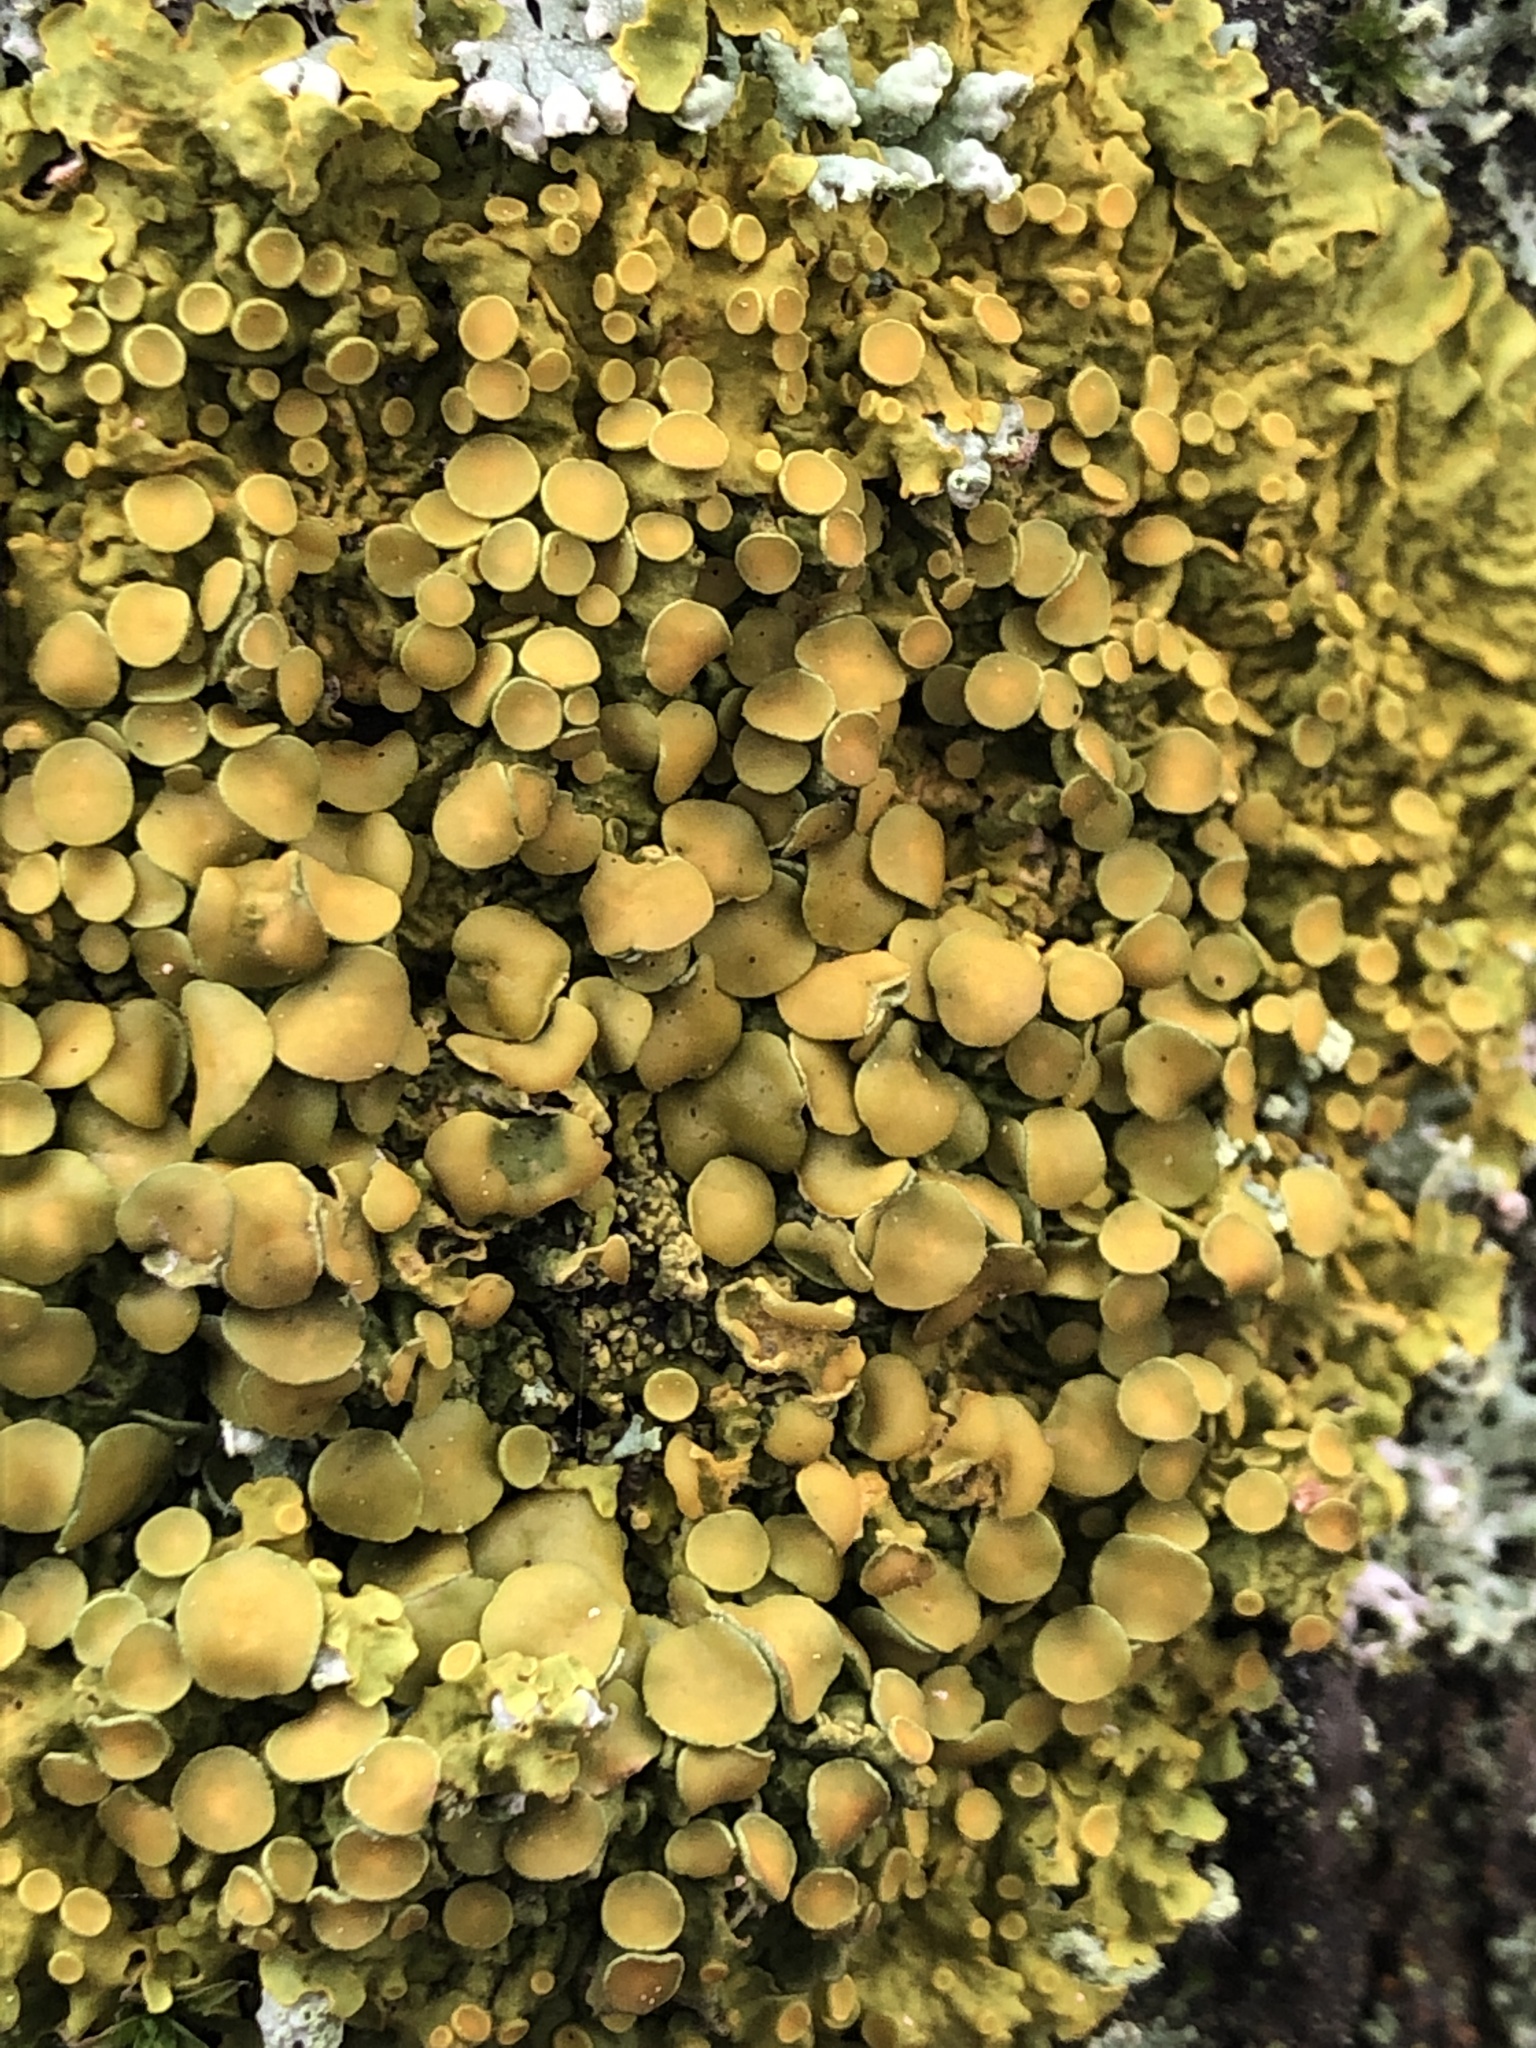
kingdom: Fungi
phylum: Ascomycota
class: Lecanoromycetes
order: Teloschistales
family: Teloschistaceae
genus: Xanthoria
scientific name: Xanthoria parietina
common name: Common orange lichen
